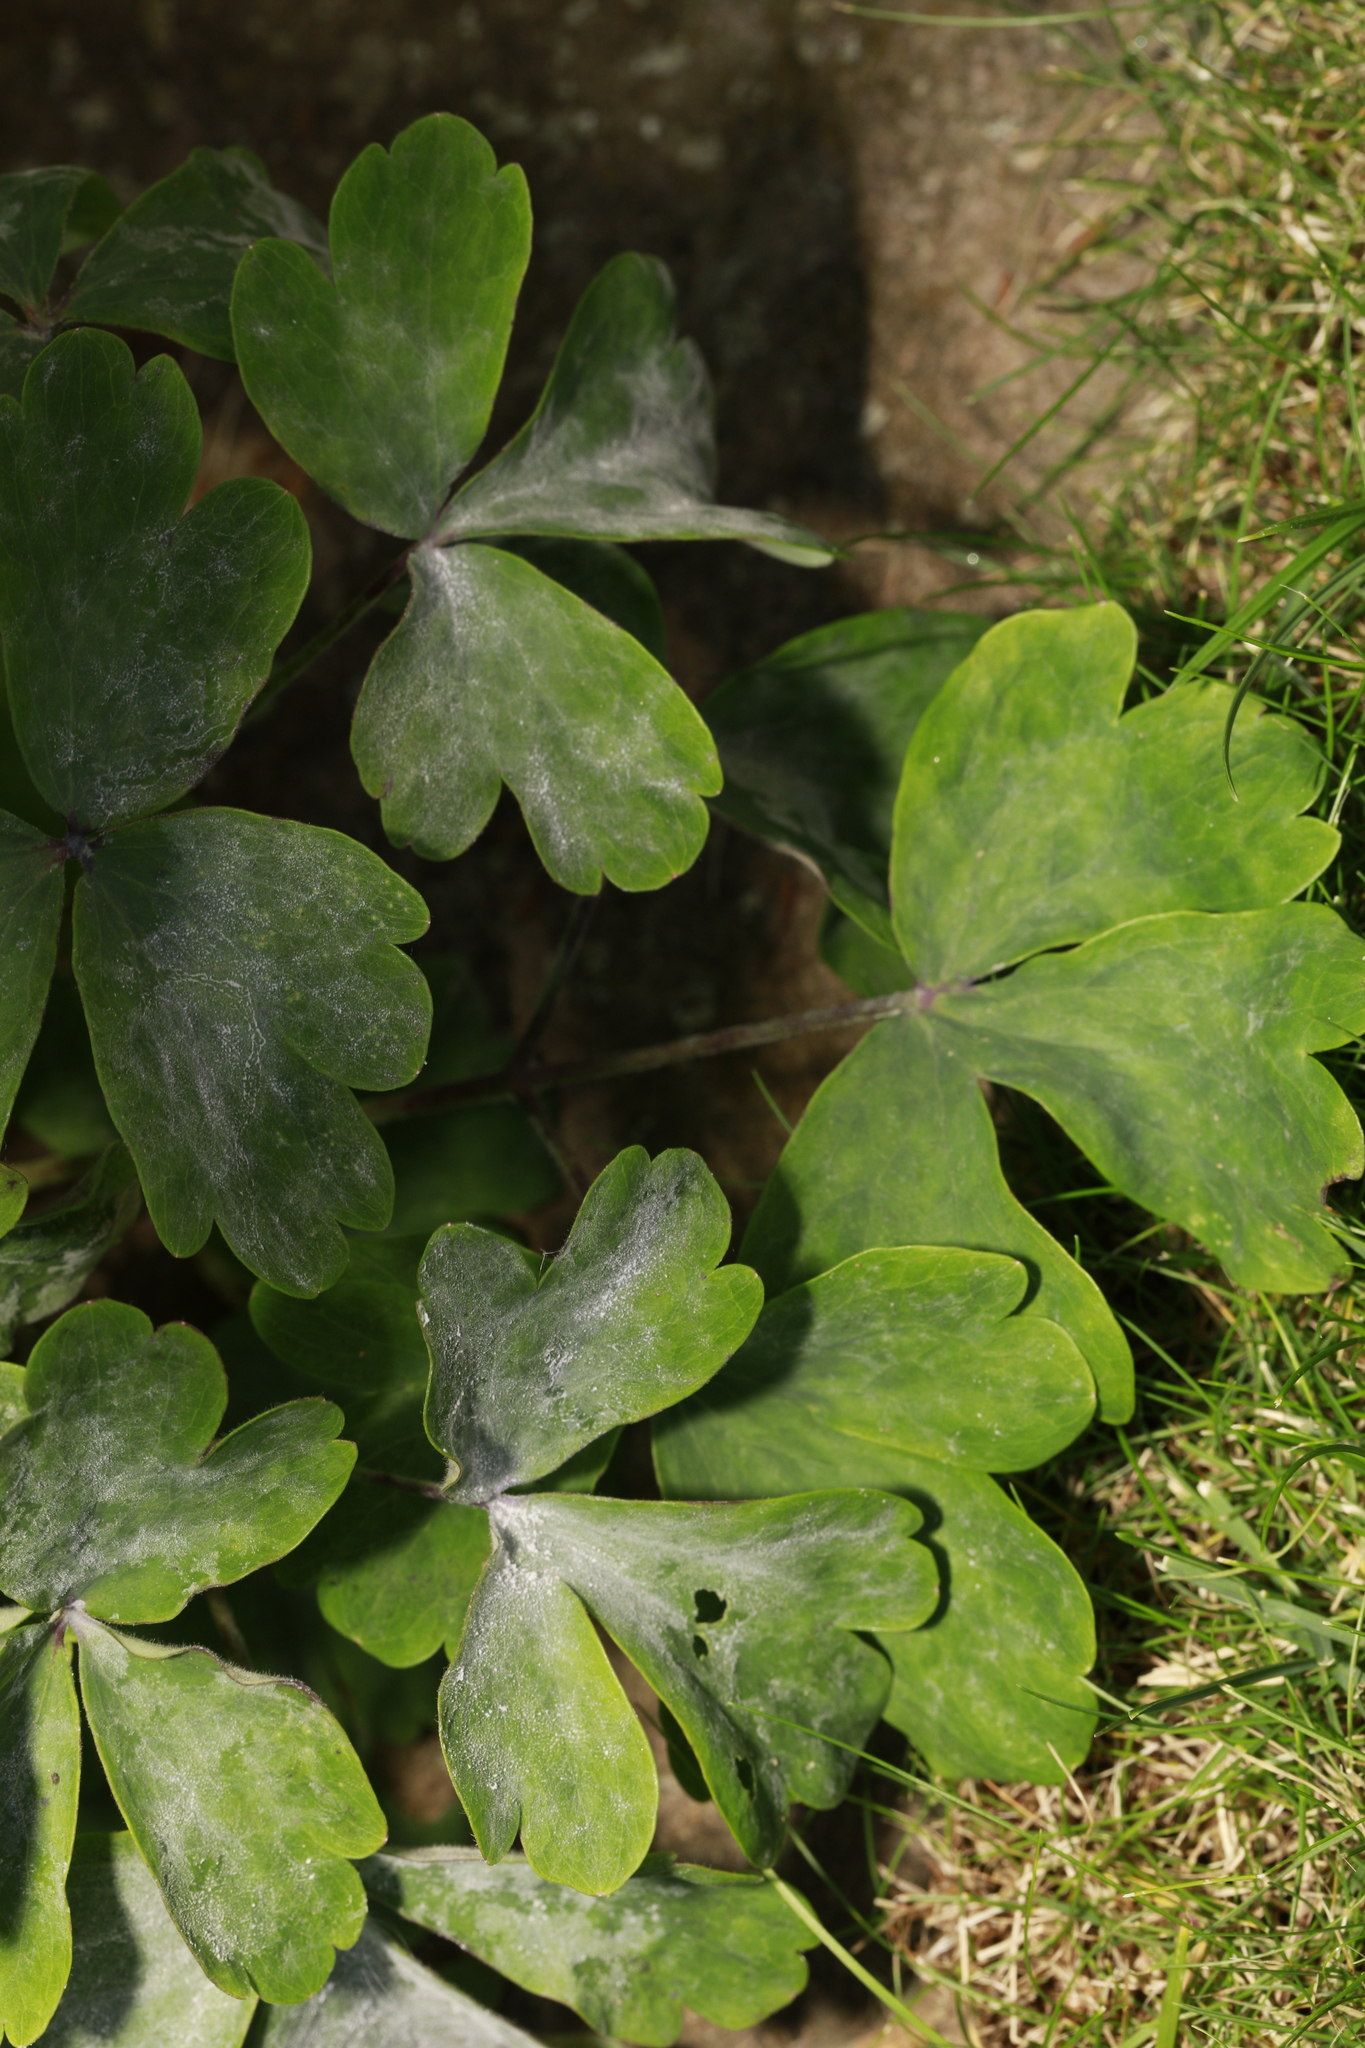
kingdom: Plantae
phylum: Tracheophyta
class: Magnoliopsida
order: Ranunculales
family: Ranunculaceae
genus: Aquilegia
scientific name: Aquilegia vulgaris
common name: Columbine
